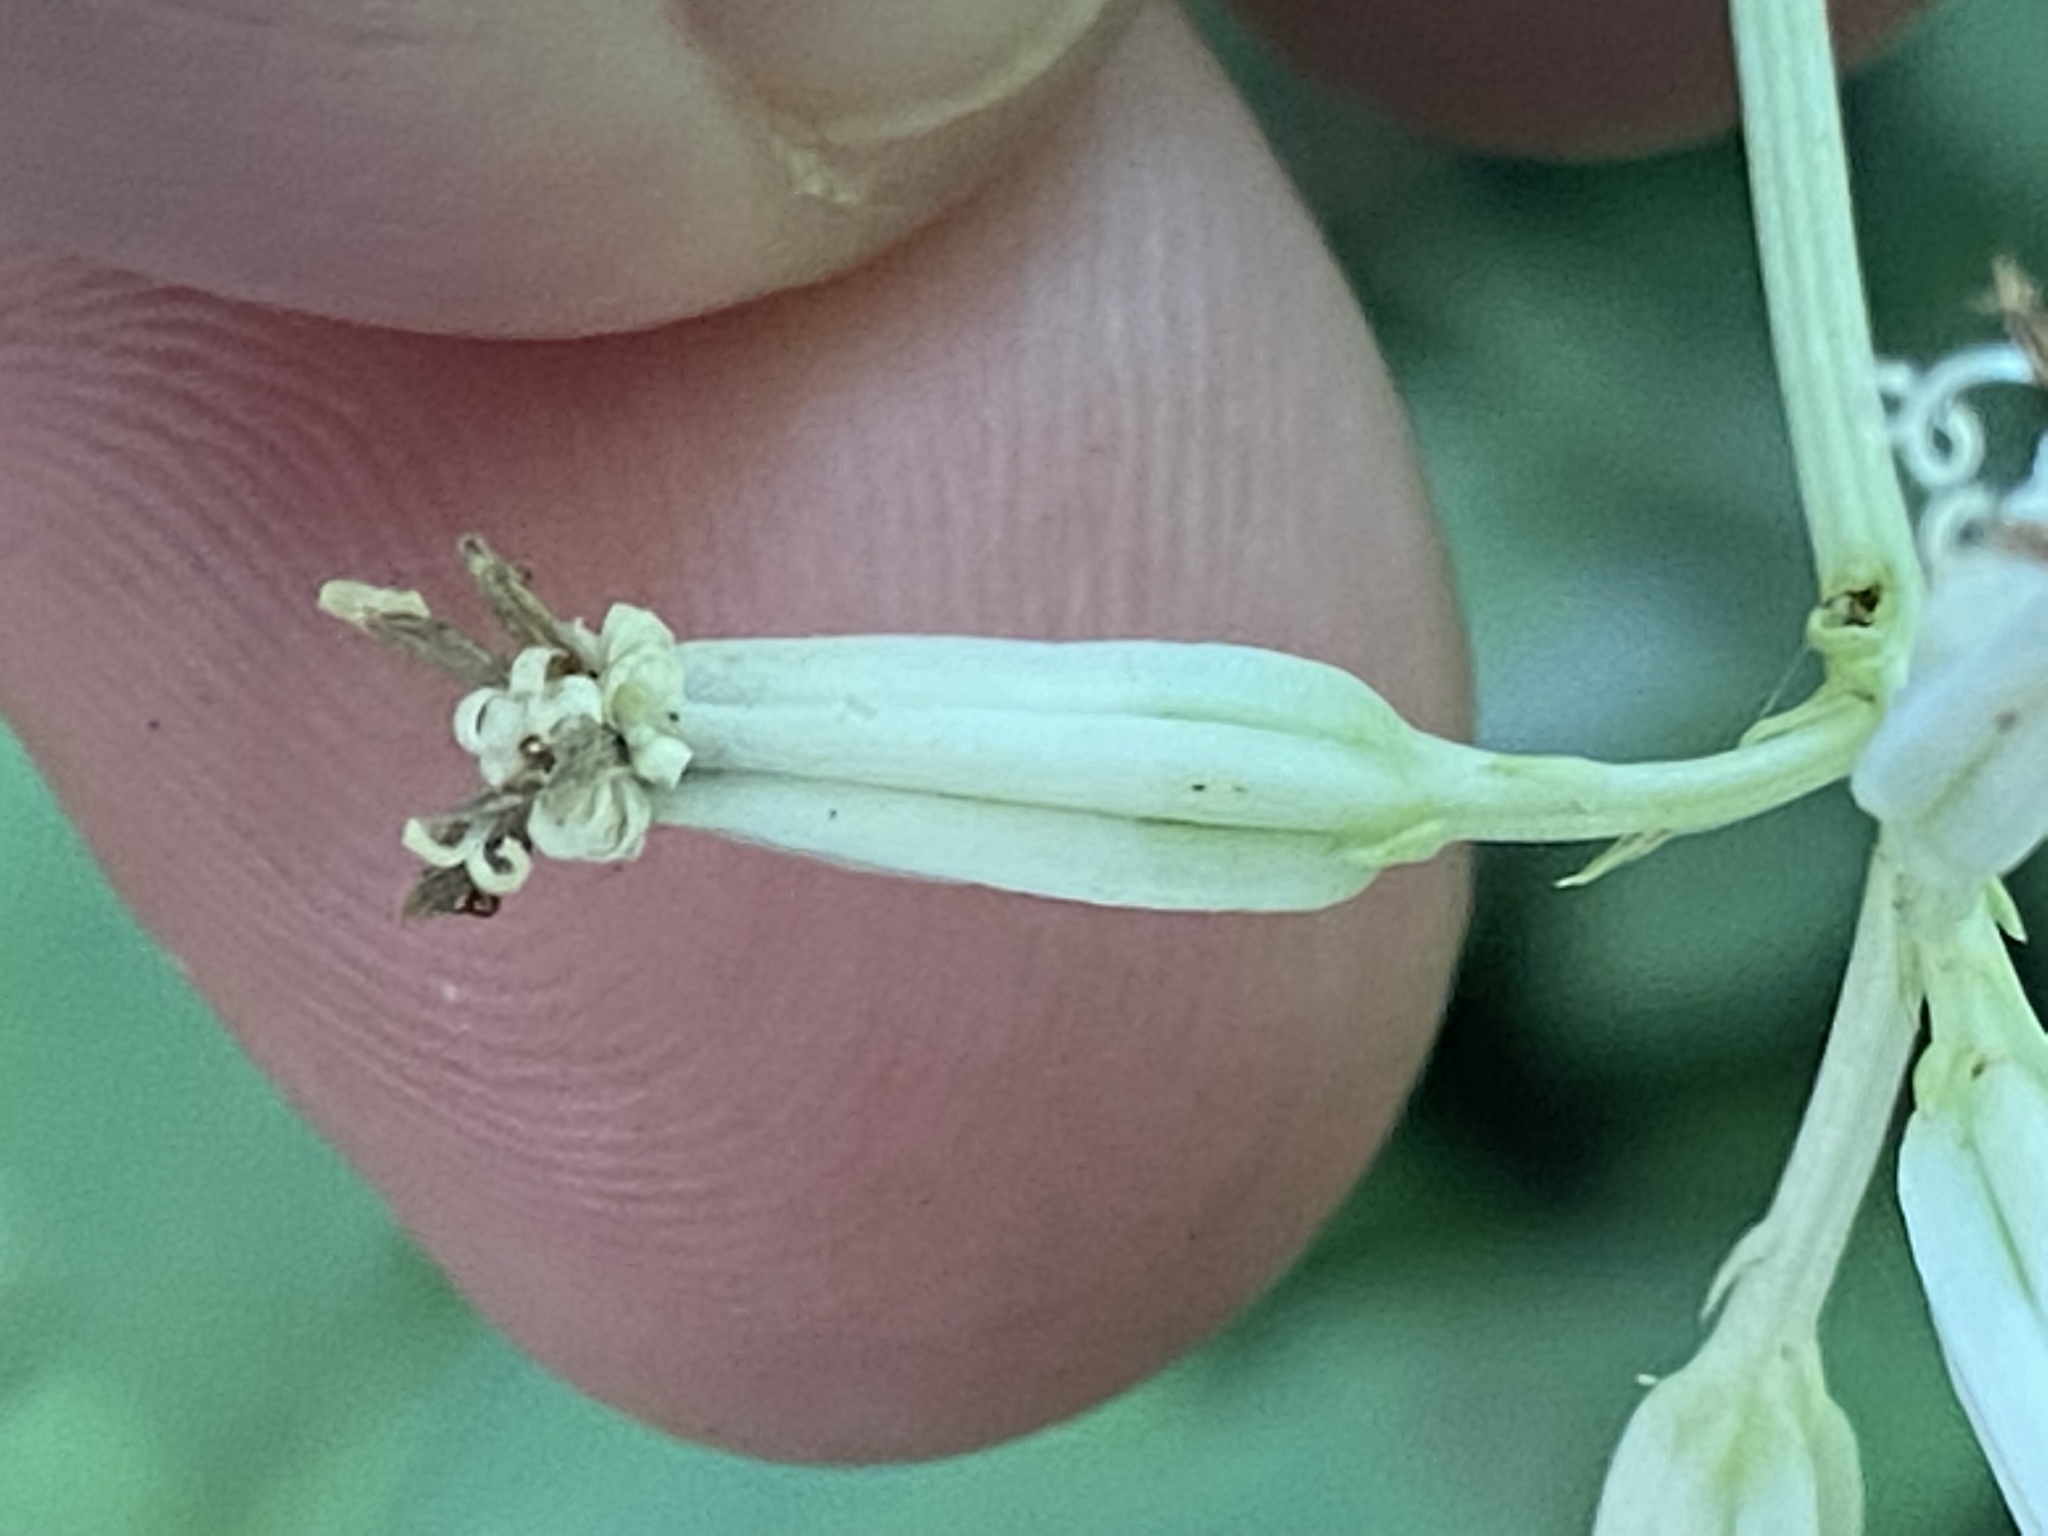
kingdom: Plantae
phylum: Tracheophyta
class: Magnoliopsida
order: Asterales
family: Asteraceae
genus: Arnoglossum
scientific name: Arnoglossum reniforme
